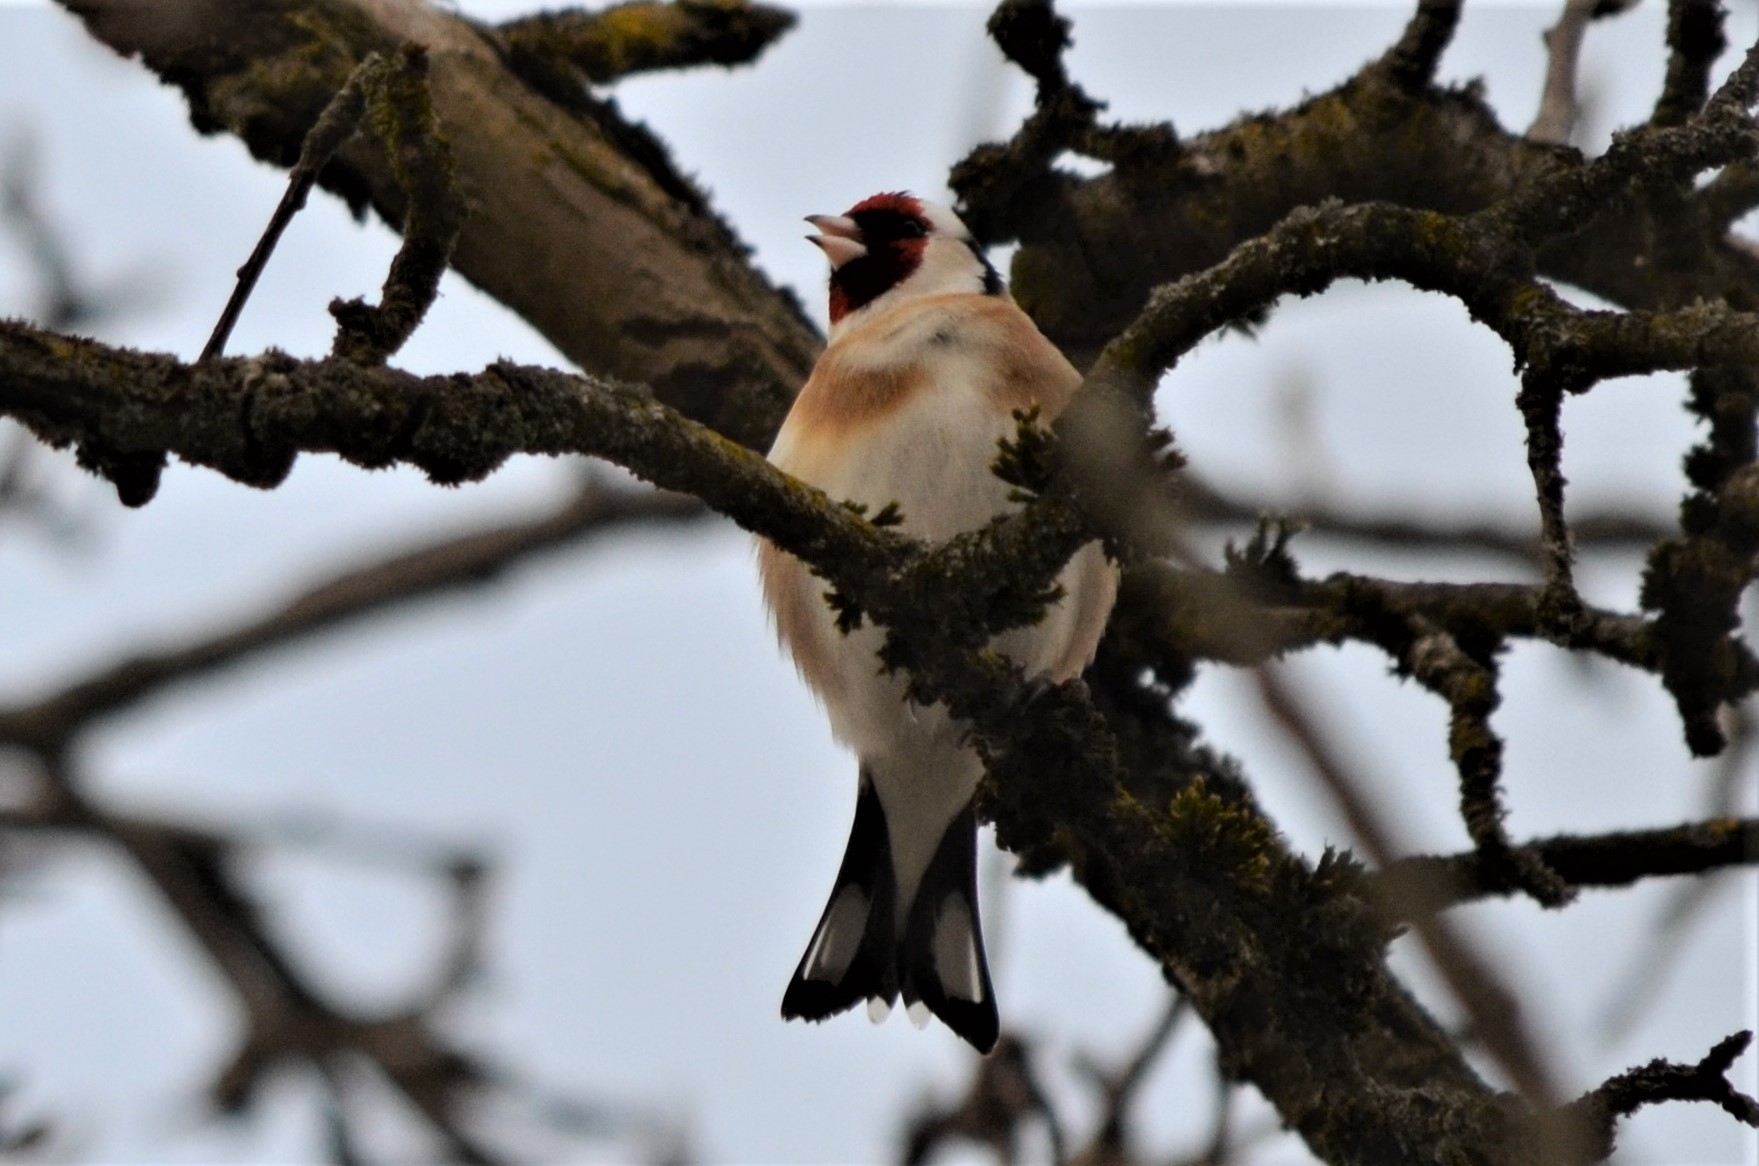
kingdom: Animalia
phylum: Chordata
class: Aves
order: Passeriformes
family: Fringillidae
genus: Carduelis
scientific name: Carduelis carduelis
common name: European goldfinch
